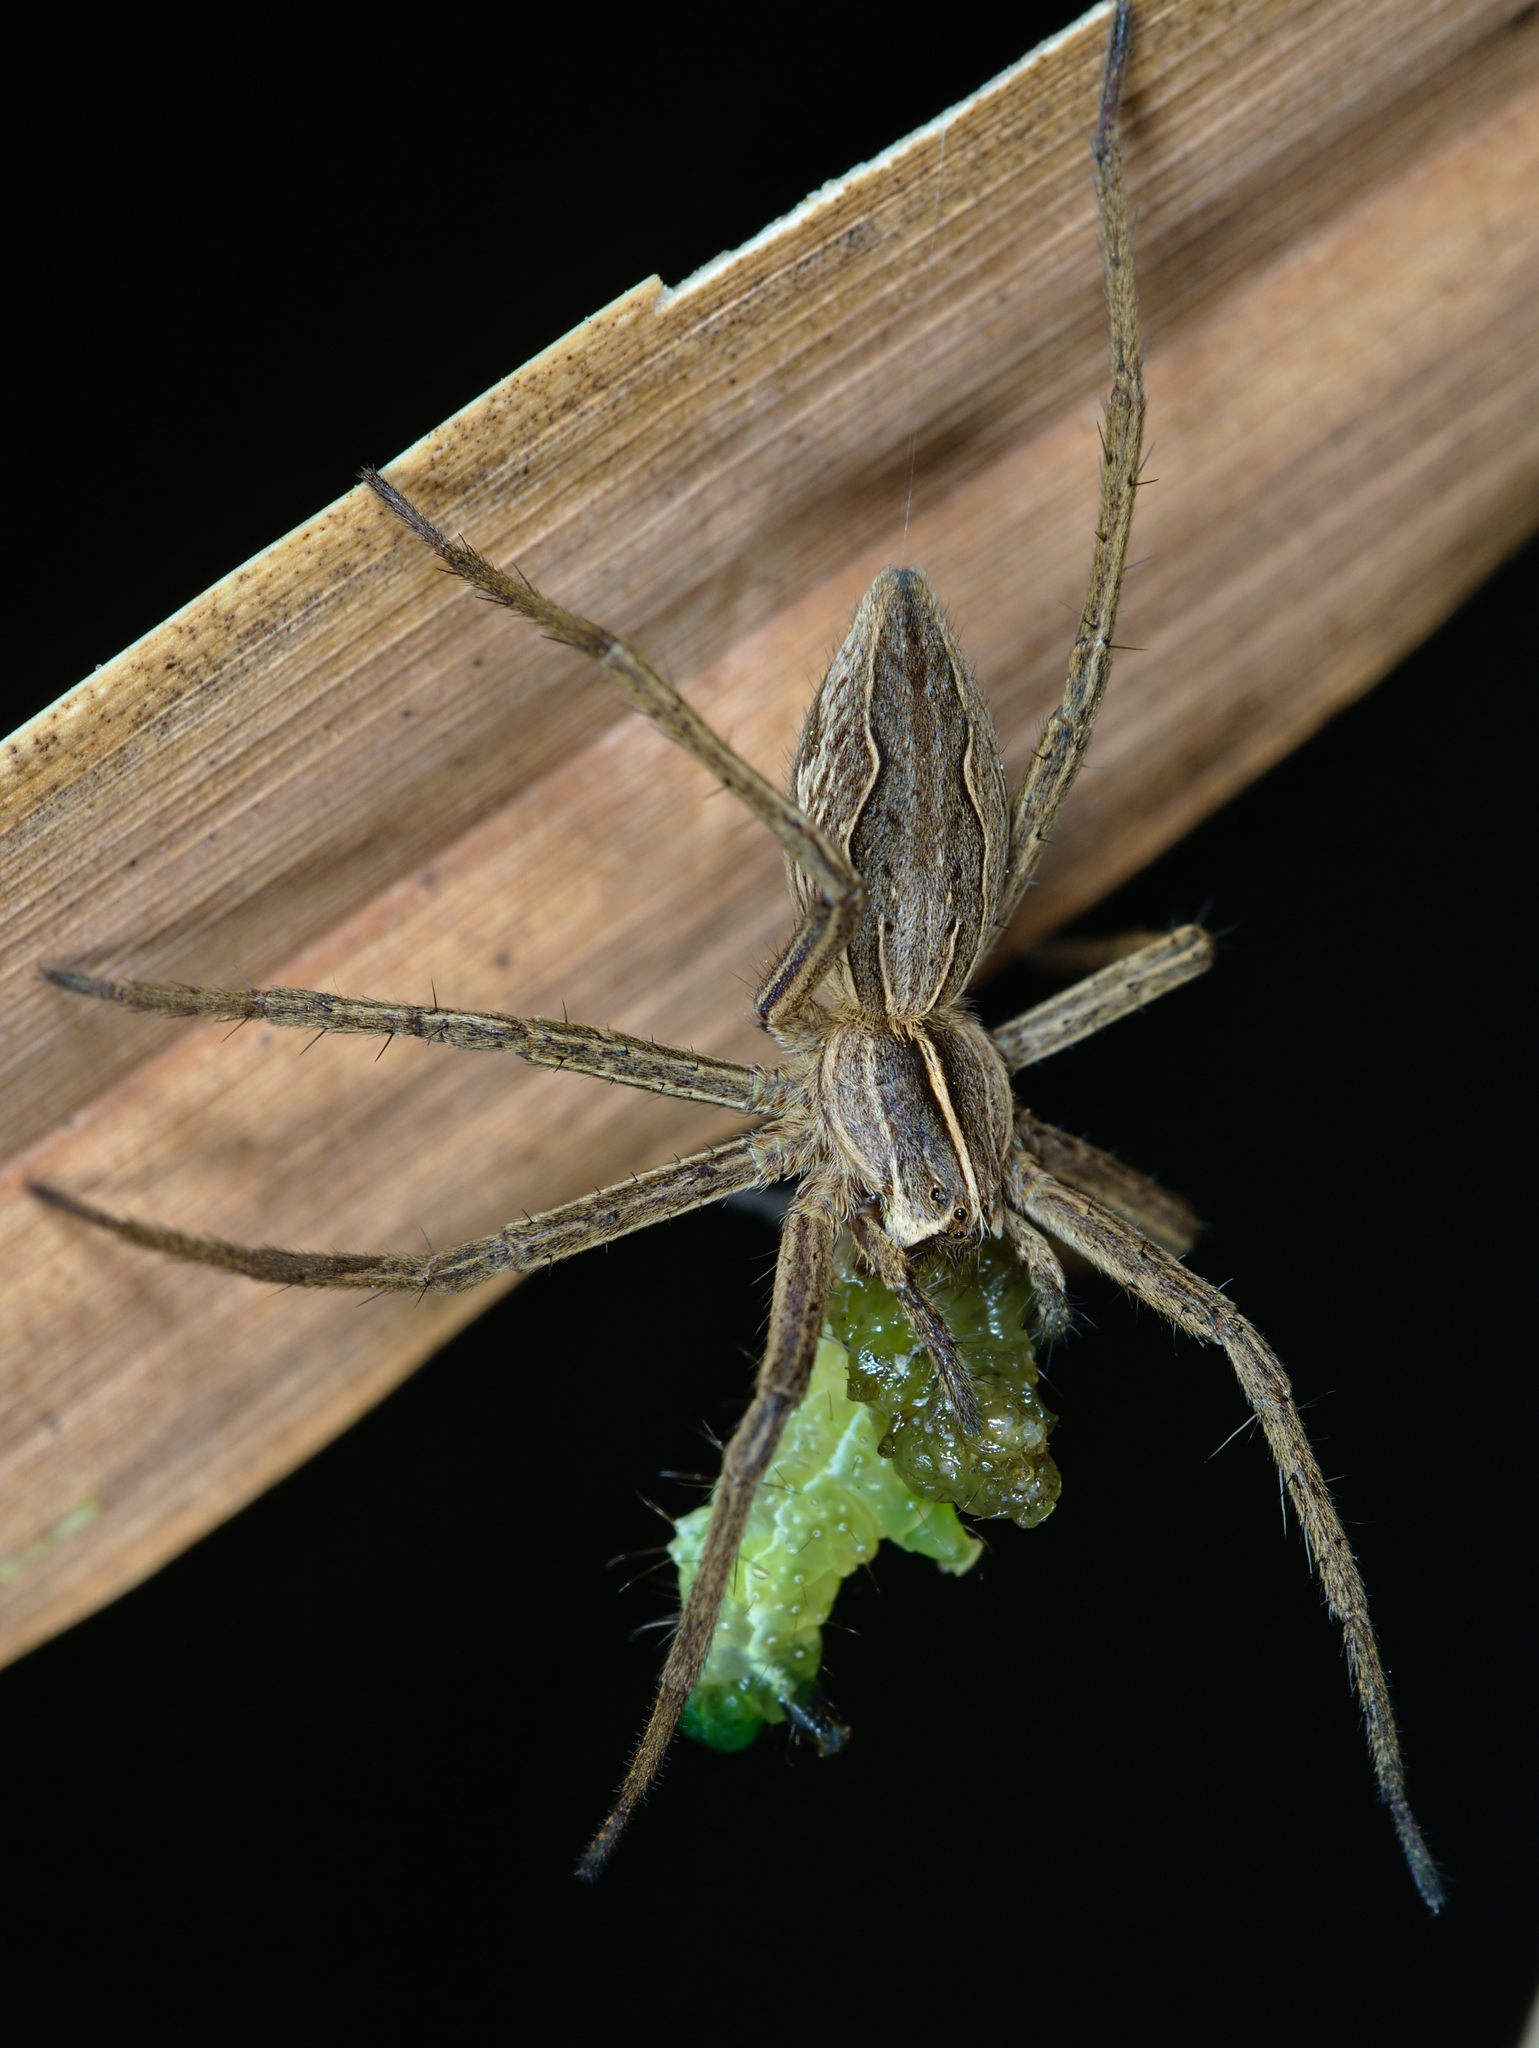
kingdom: Animalia
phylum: Arthropoda
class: Arachnida
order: Araneae
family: Pisauridae
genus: Pisaura
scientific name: Pisaura mirabilis
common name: Tent spider
